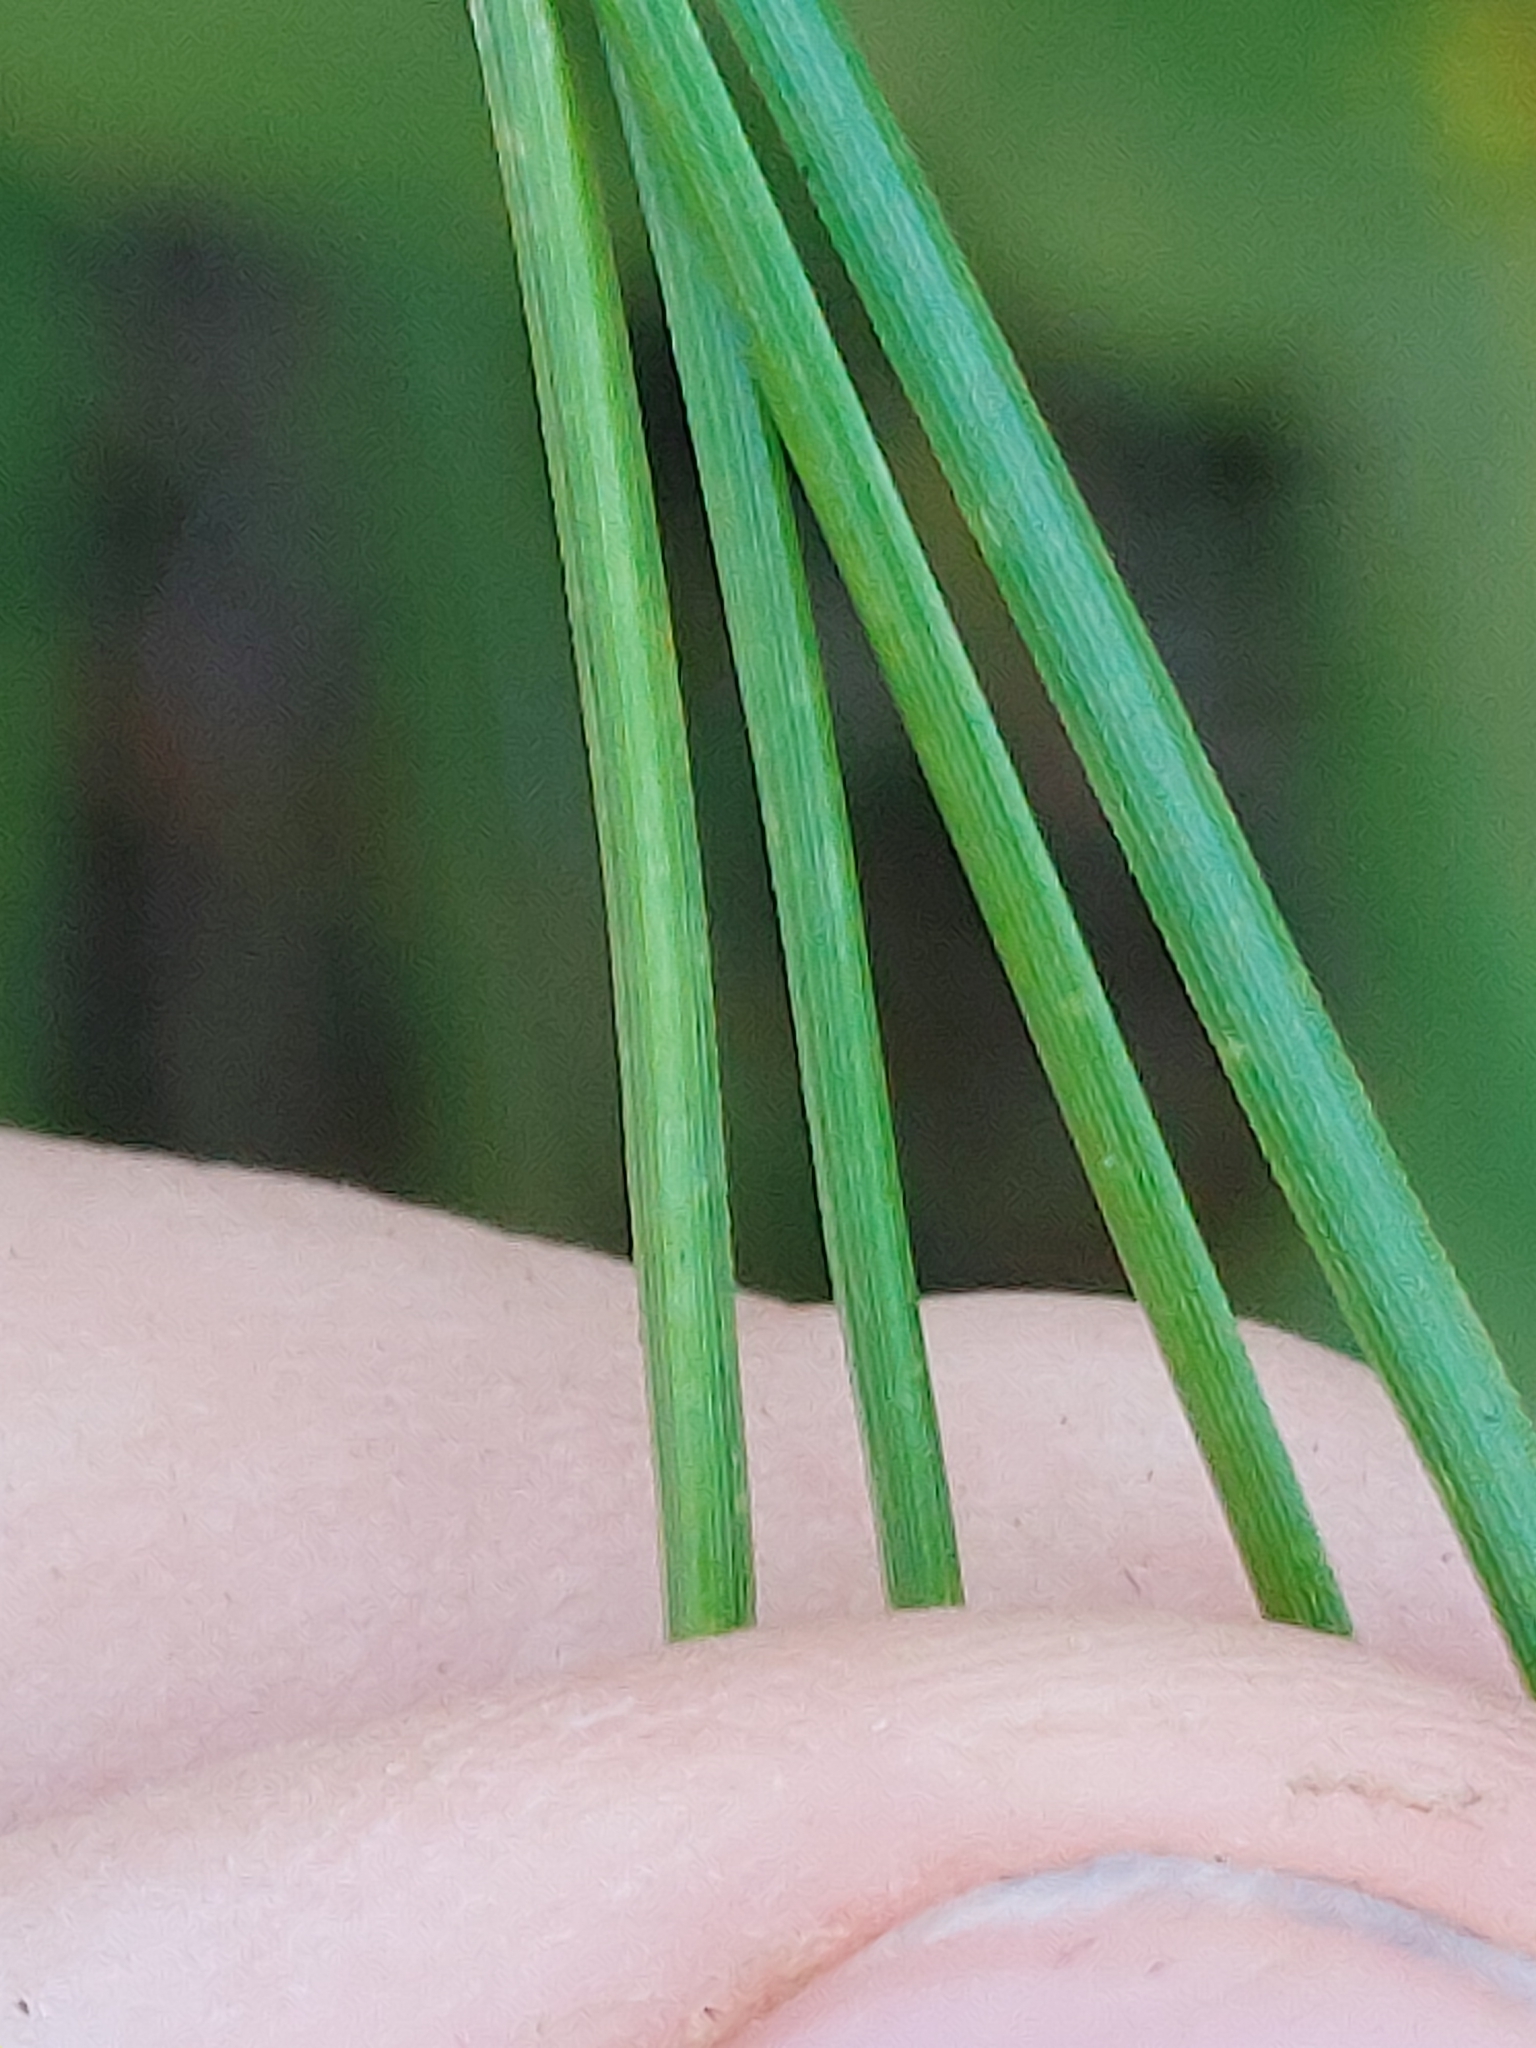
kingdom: Plantae
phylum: Tracheophyta
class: Pinopsida
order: Pinales
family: Pinaceae
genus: Pinus
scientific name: Pinus serotina
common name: Marsh pine
